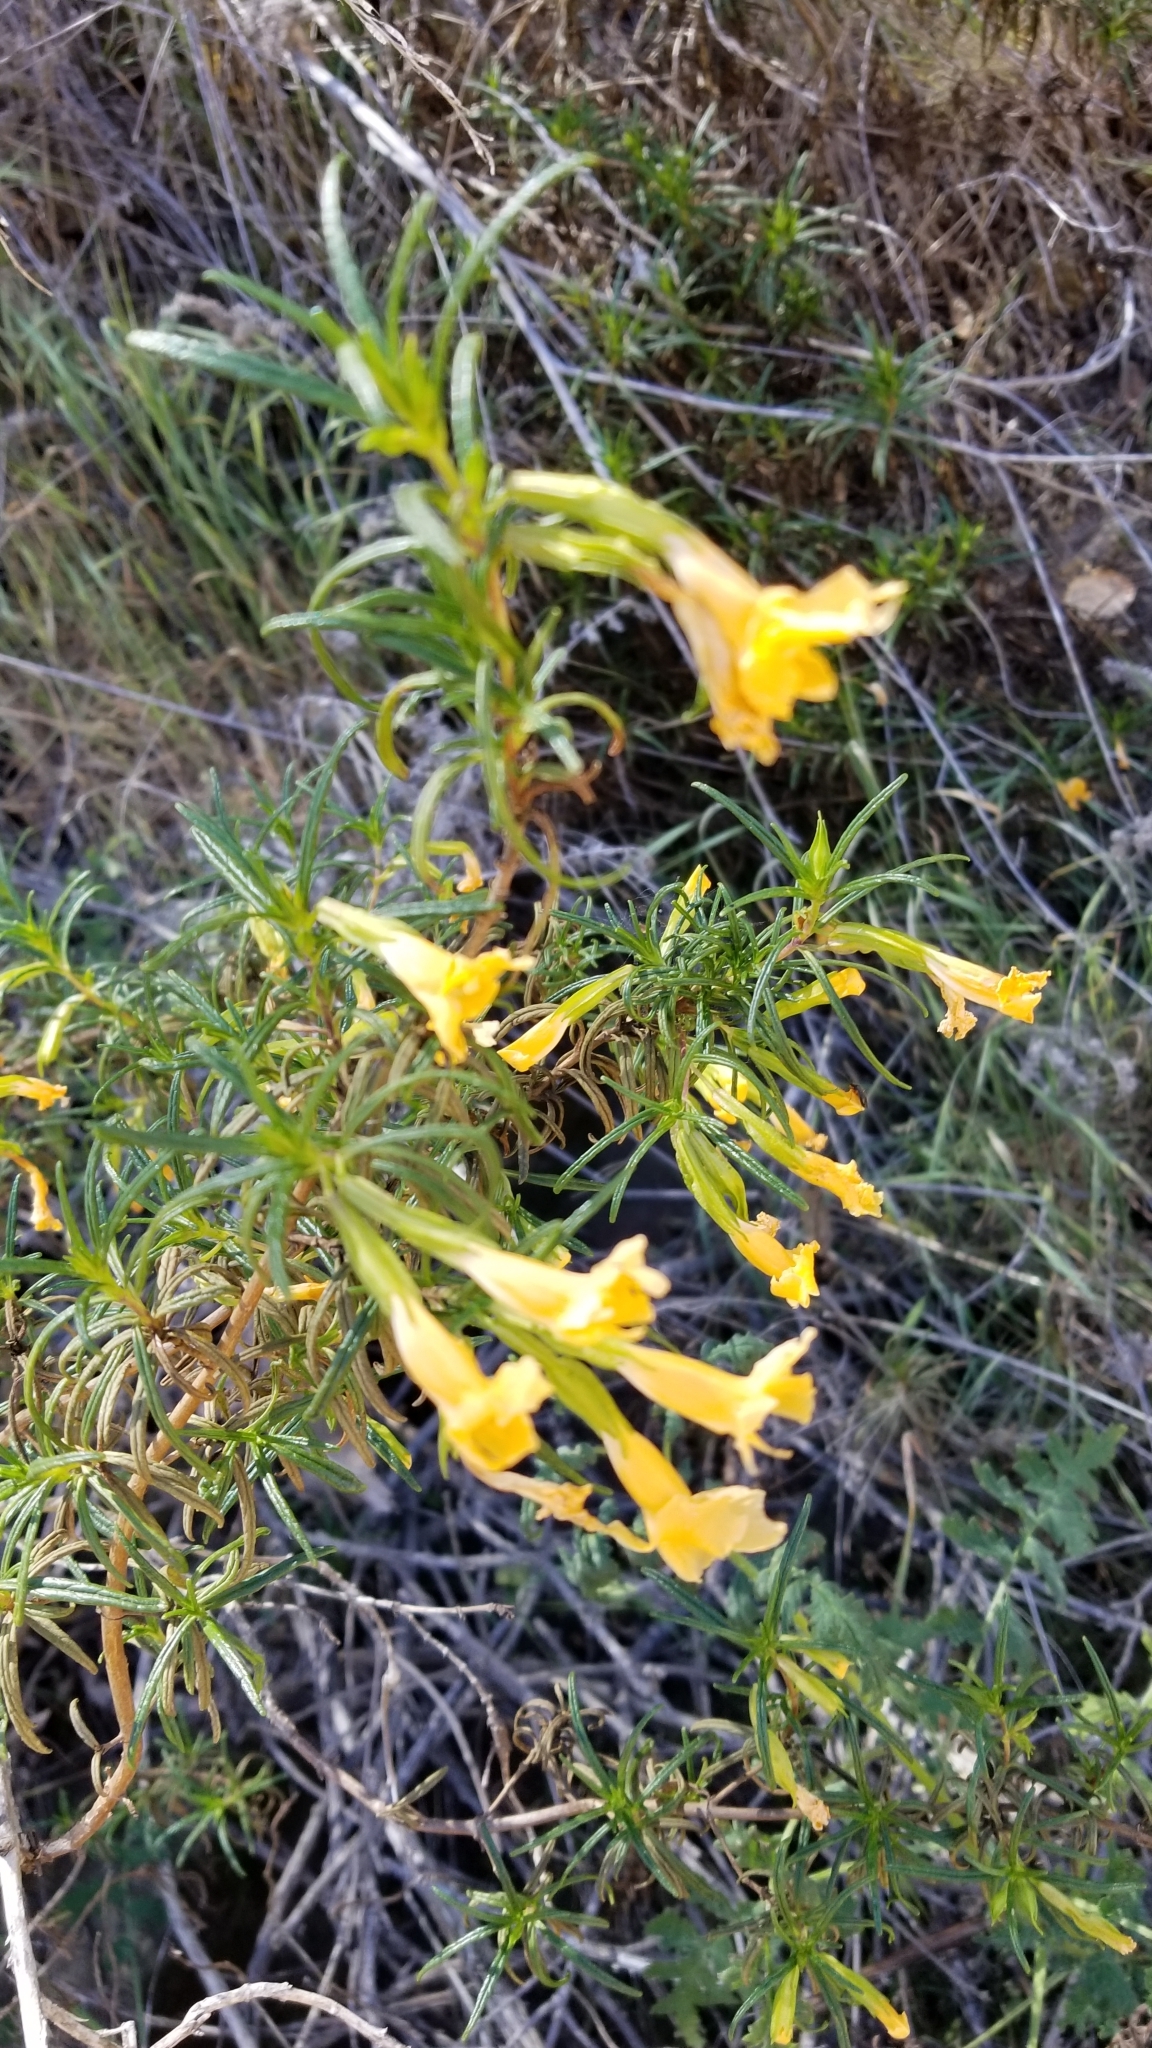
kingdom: Plantae
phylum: Tracheophyta
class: Magnoliopsida
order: Lamiales
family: Phrymaceae
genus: Diplacus
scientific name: Diplacus australis
